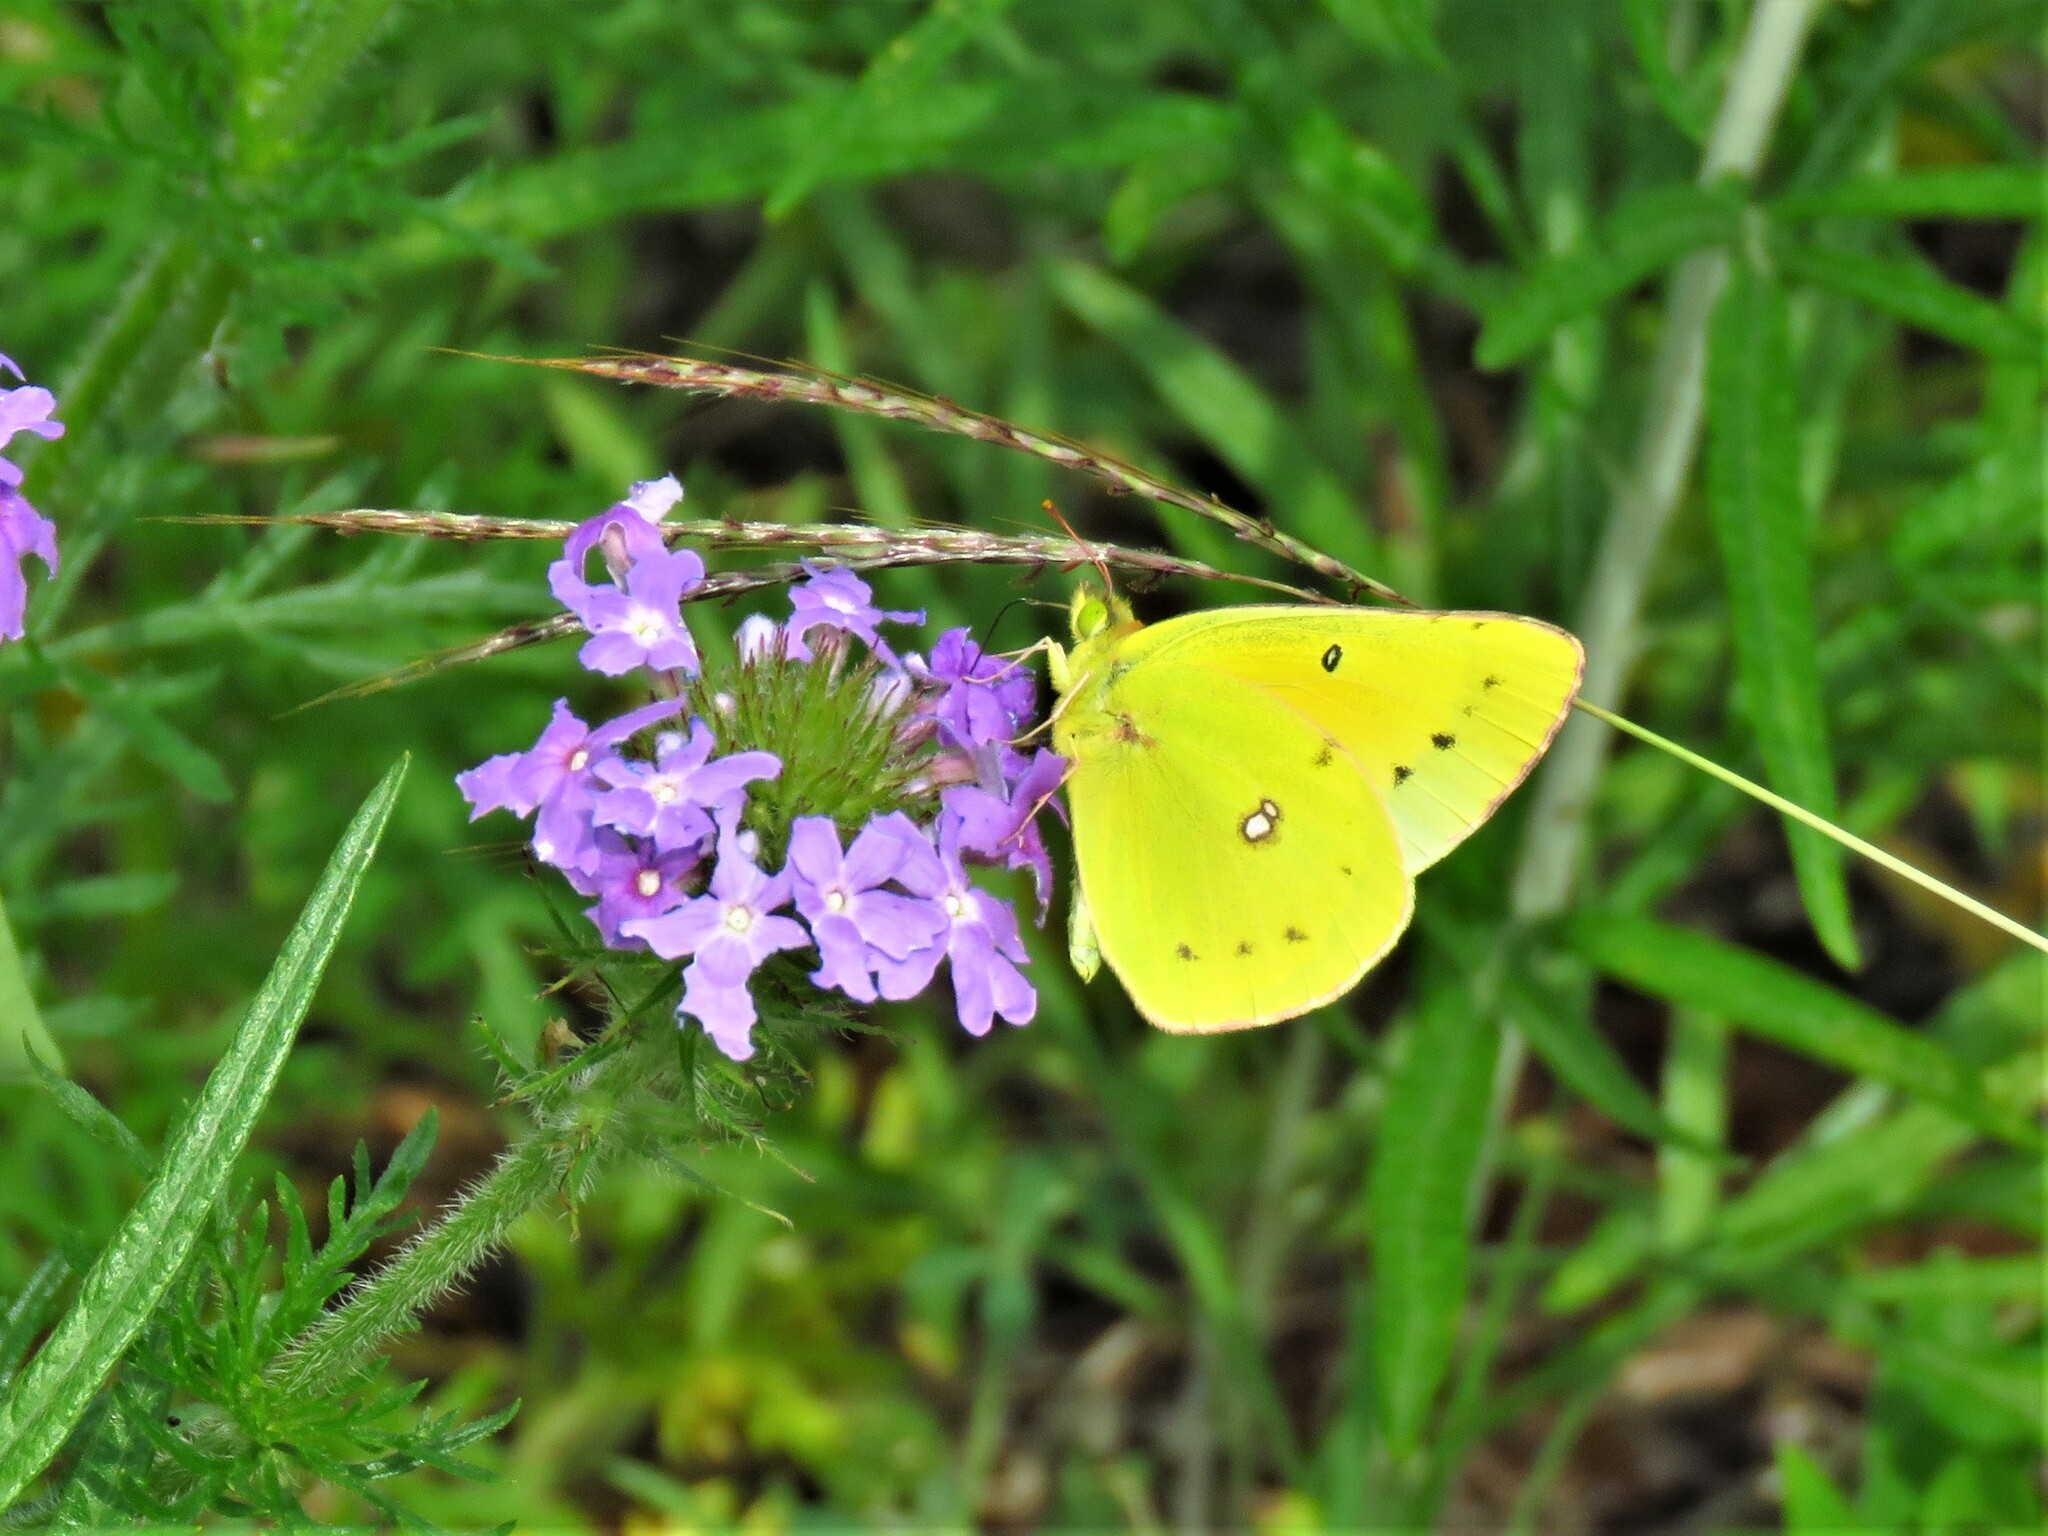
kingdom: Animalia
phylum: Arthropoda
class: Insecta
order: Lepidoptera
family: Pieridae
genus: Colias
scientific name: Colias eurytheme
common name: Alfalfa butterfly
